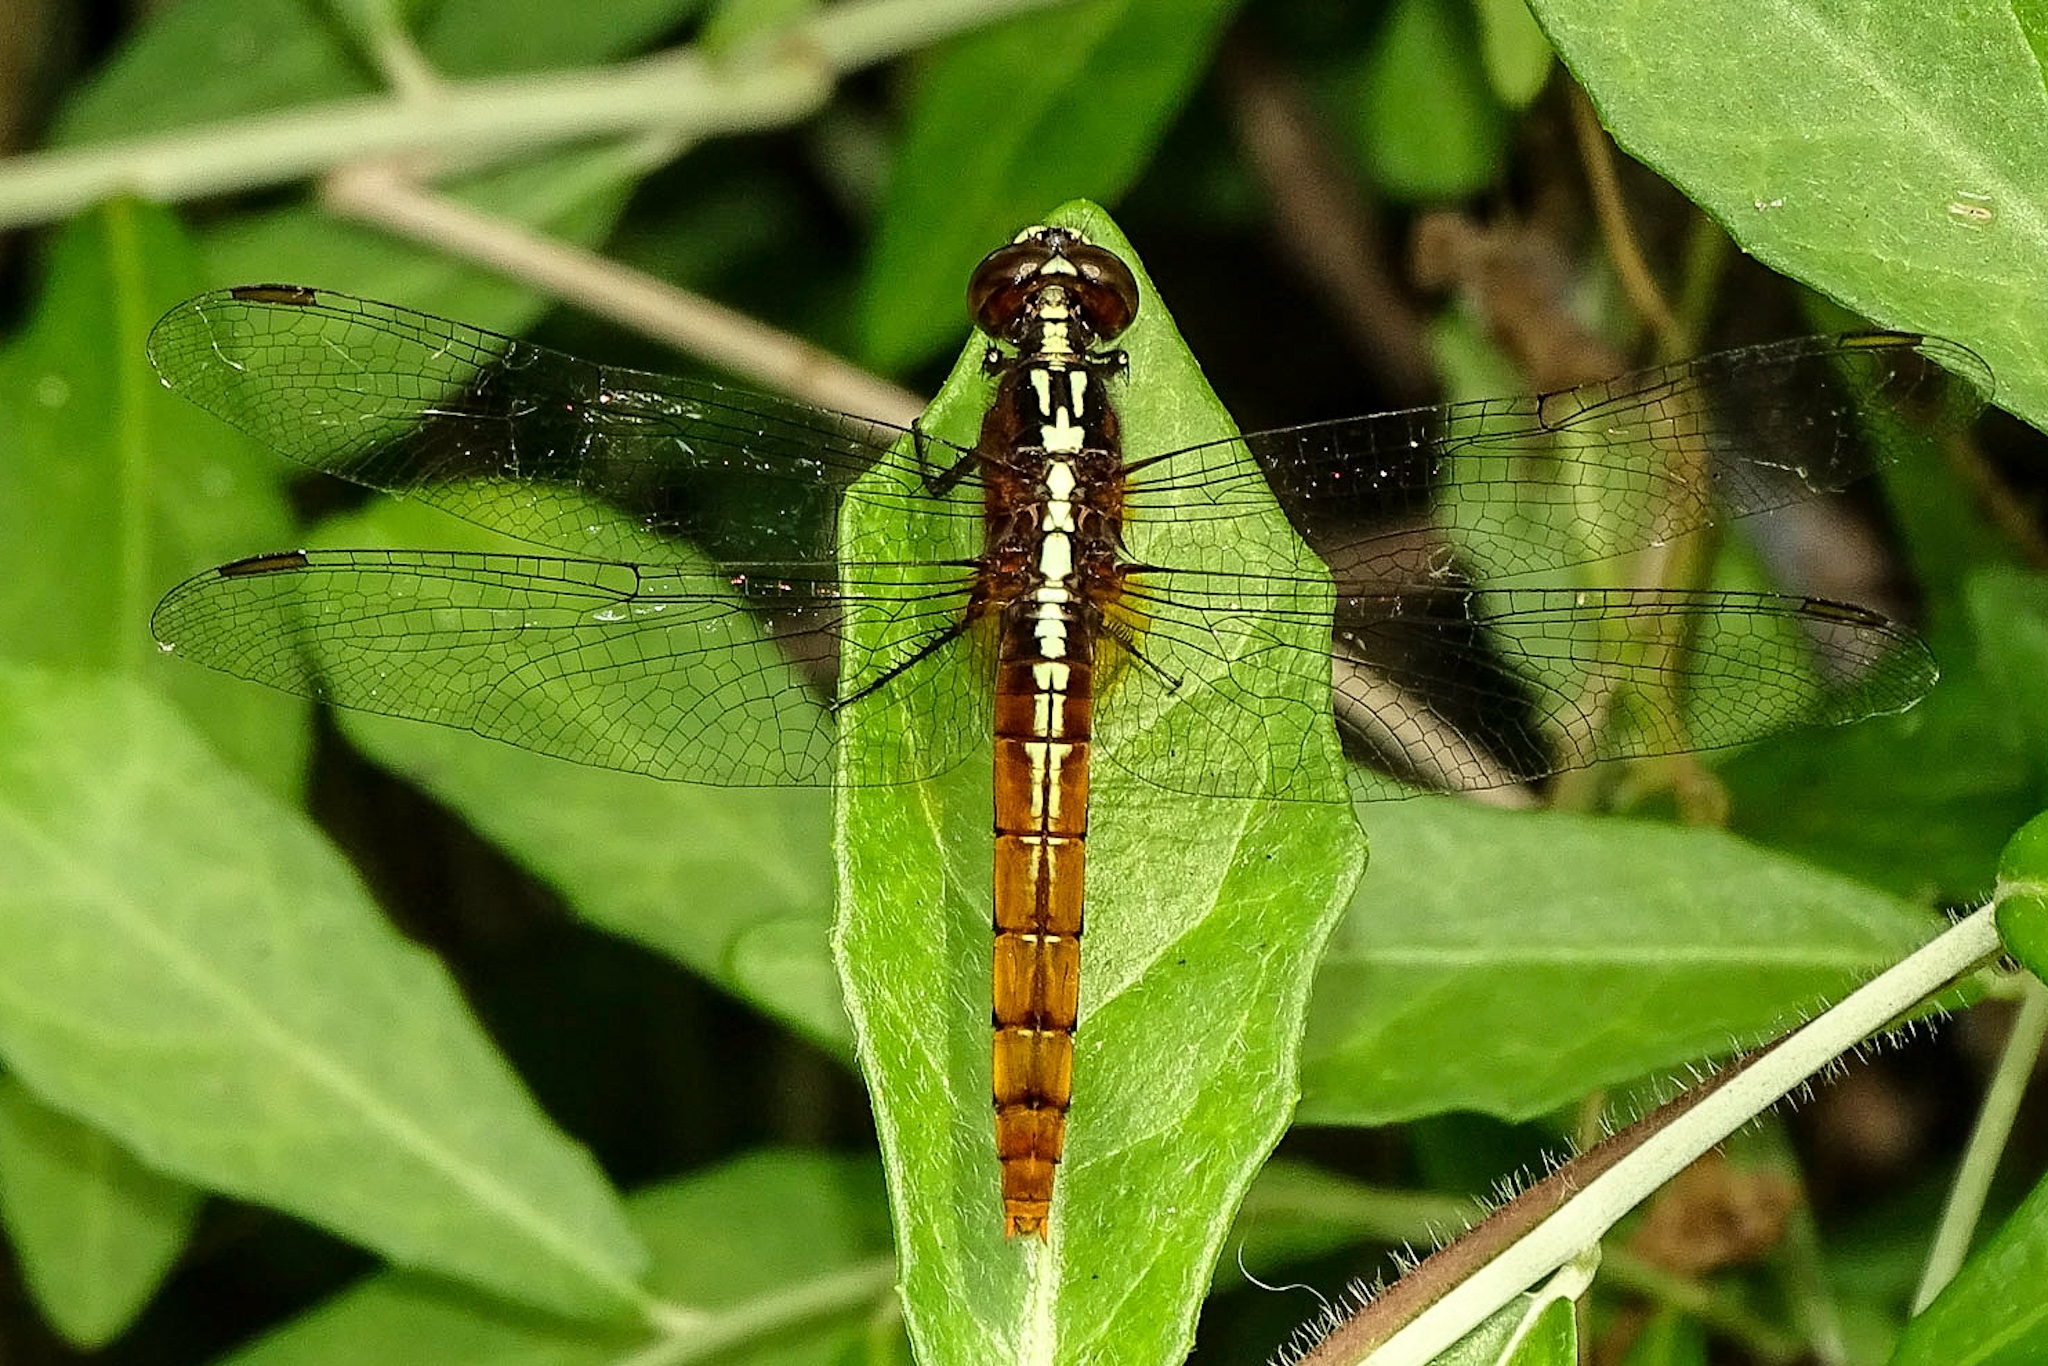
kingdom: Animalia
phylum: Arthropoda
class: Insecta
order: Odonata
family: Libellulidae
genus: Rhodothemis
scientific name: Rhodothemis rufa
